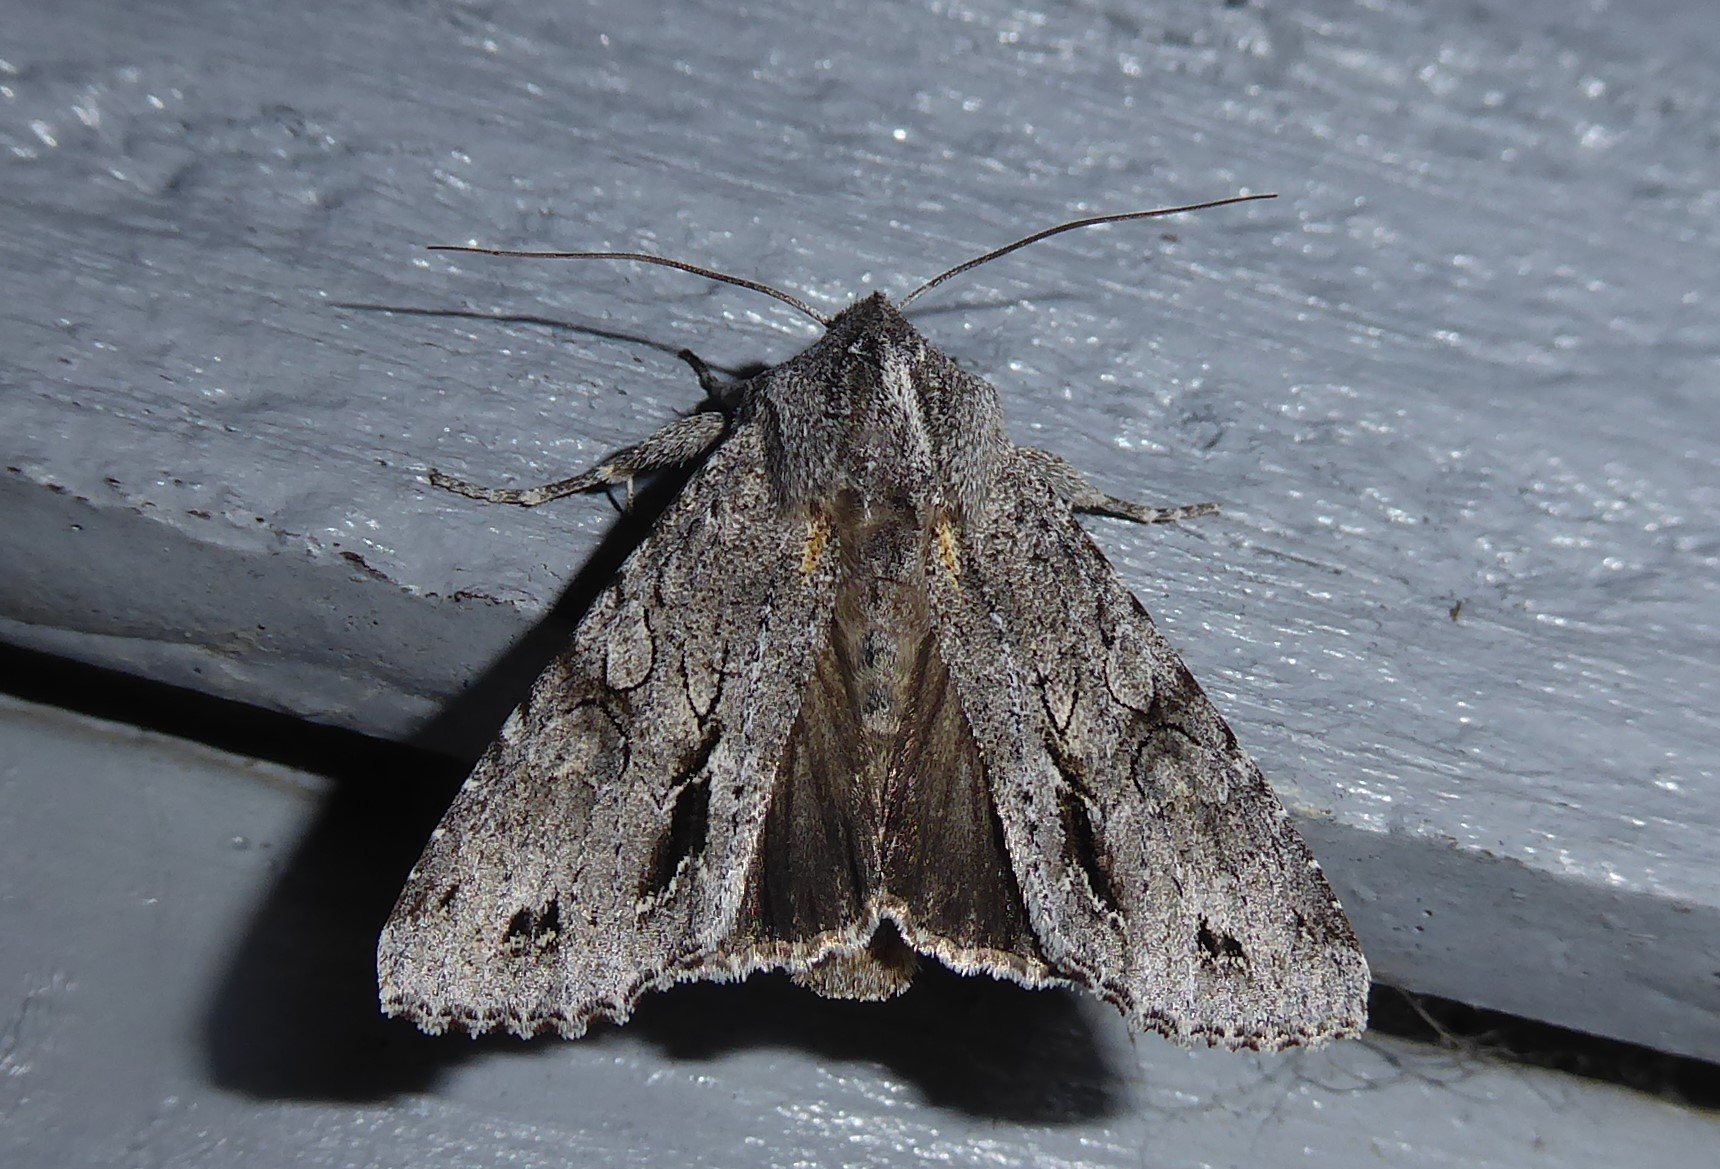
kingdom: Animalia
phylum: Arthropoda
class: Insecta
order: Lepidoptera
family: Noctuidae
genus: Ichneutica
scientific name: Ichneutica
